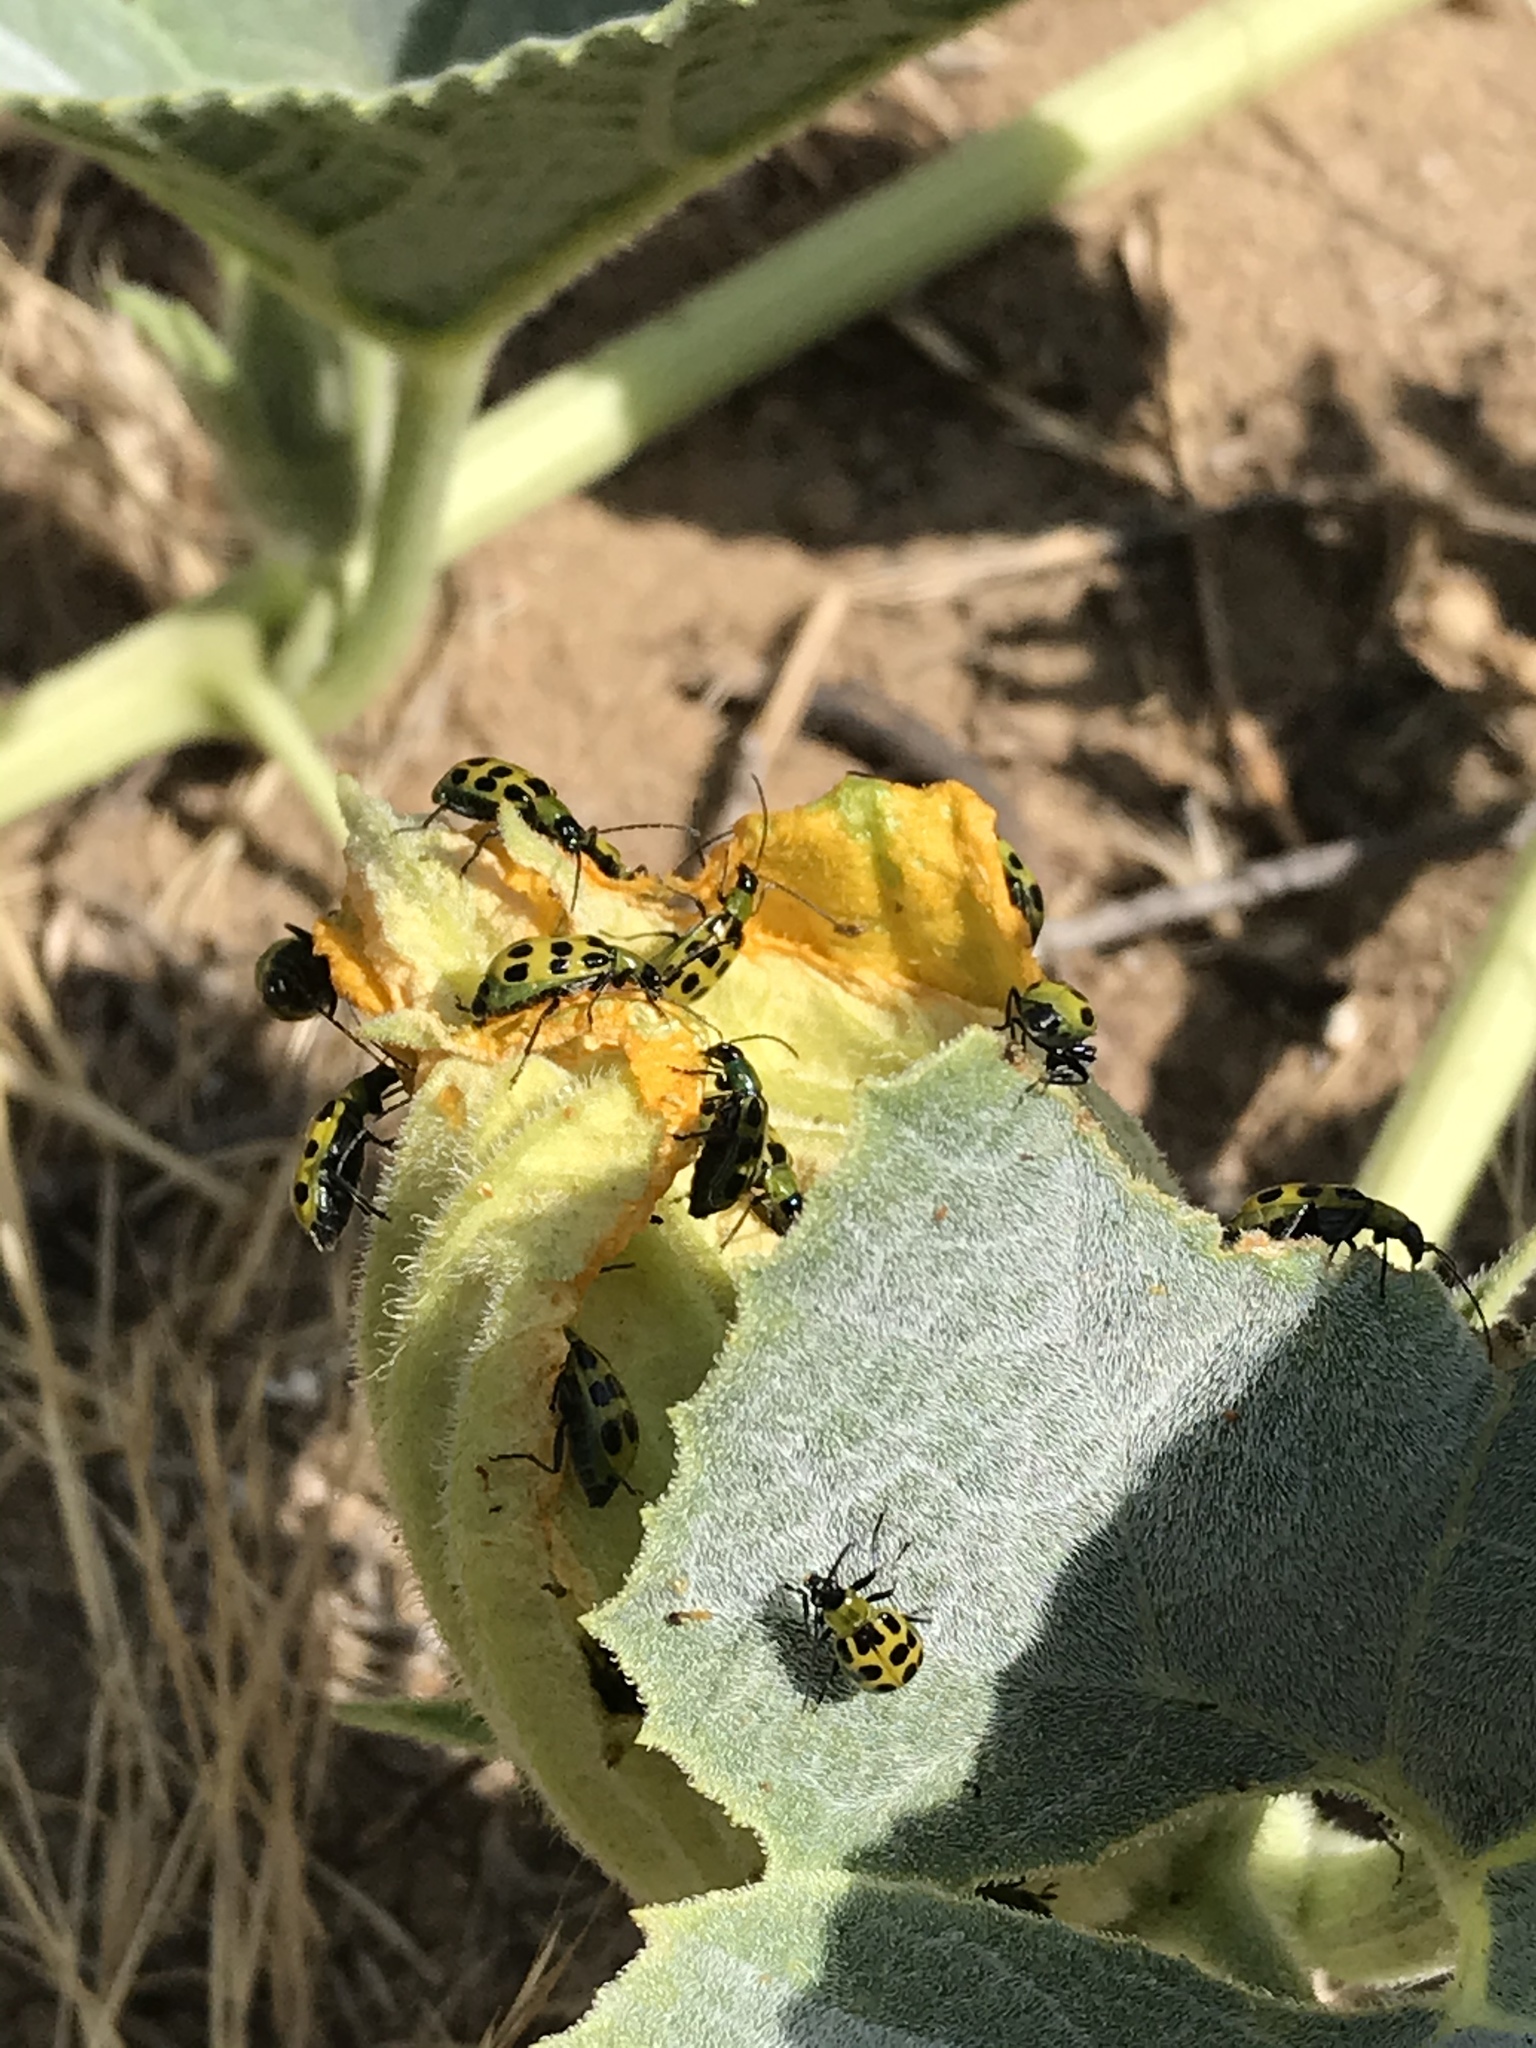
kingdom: Animalia
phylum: Arthropoda
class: Insecta
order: Coleoptera
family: Chrysomelidae
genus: Diabrotica
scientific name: Diabrotica undecimpunctata
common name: Spotted cucumber beetle
